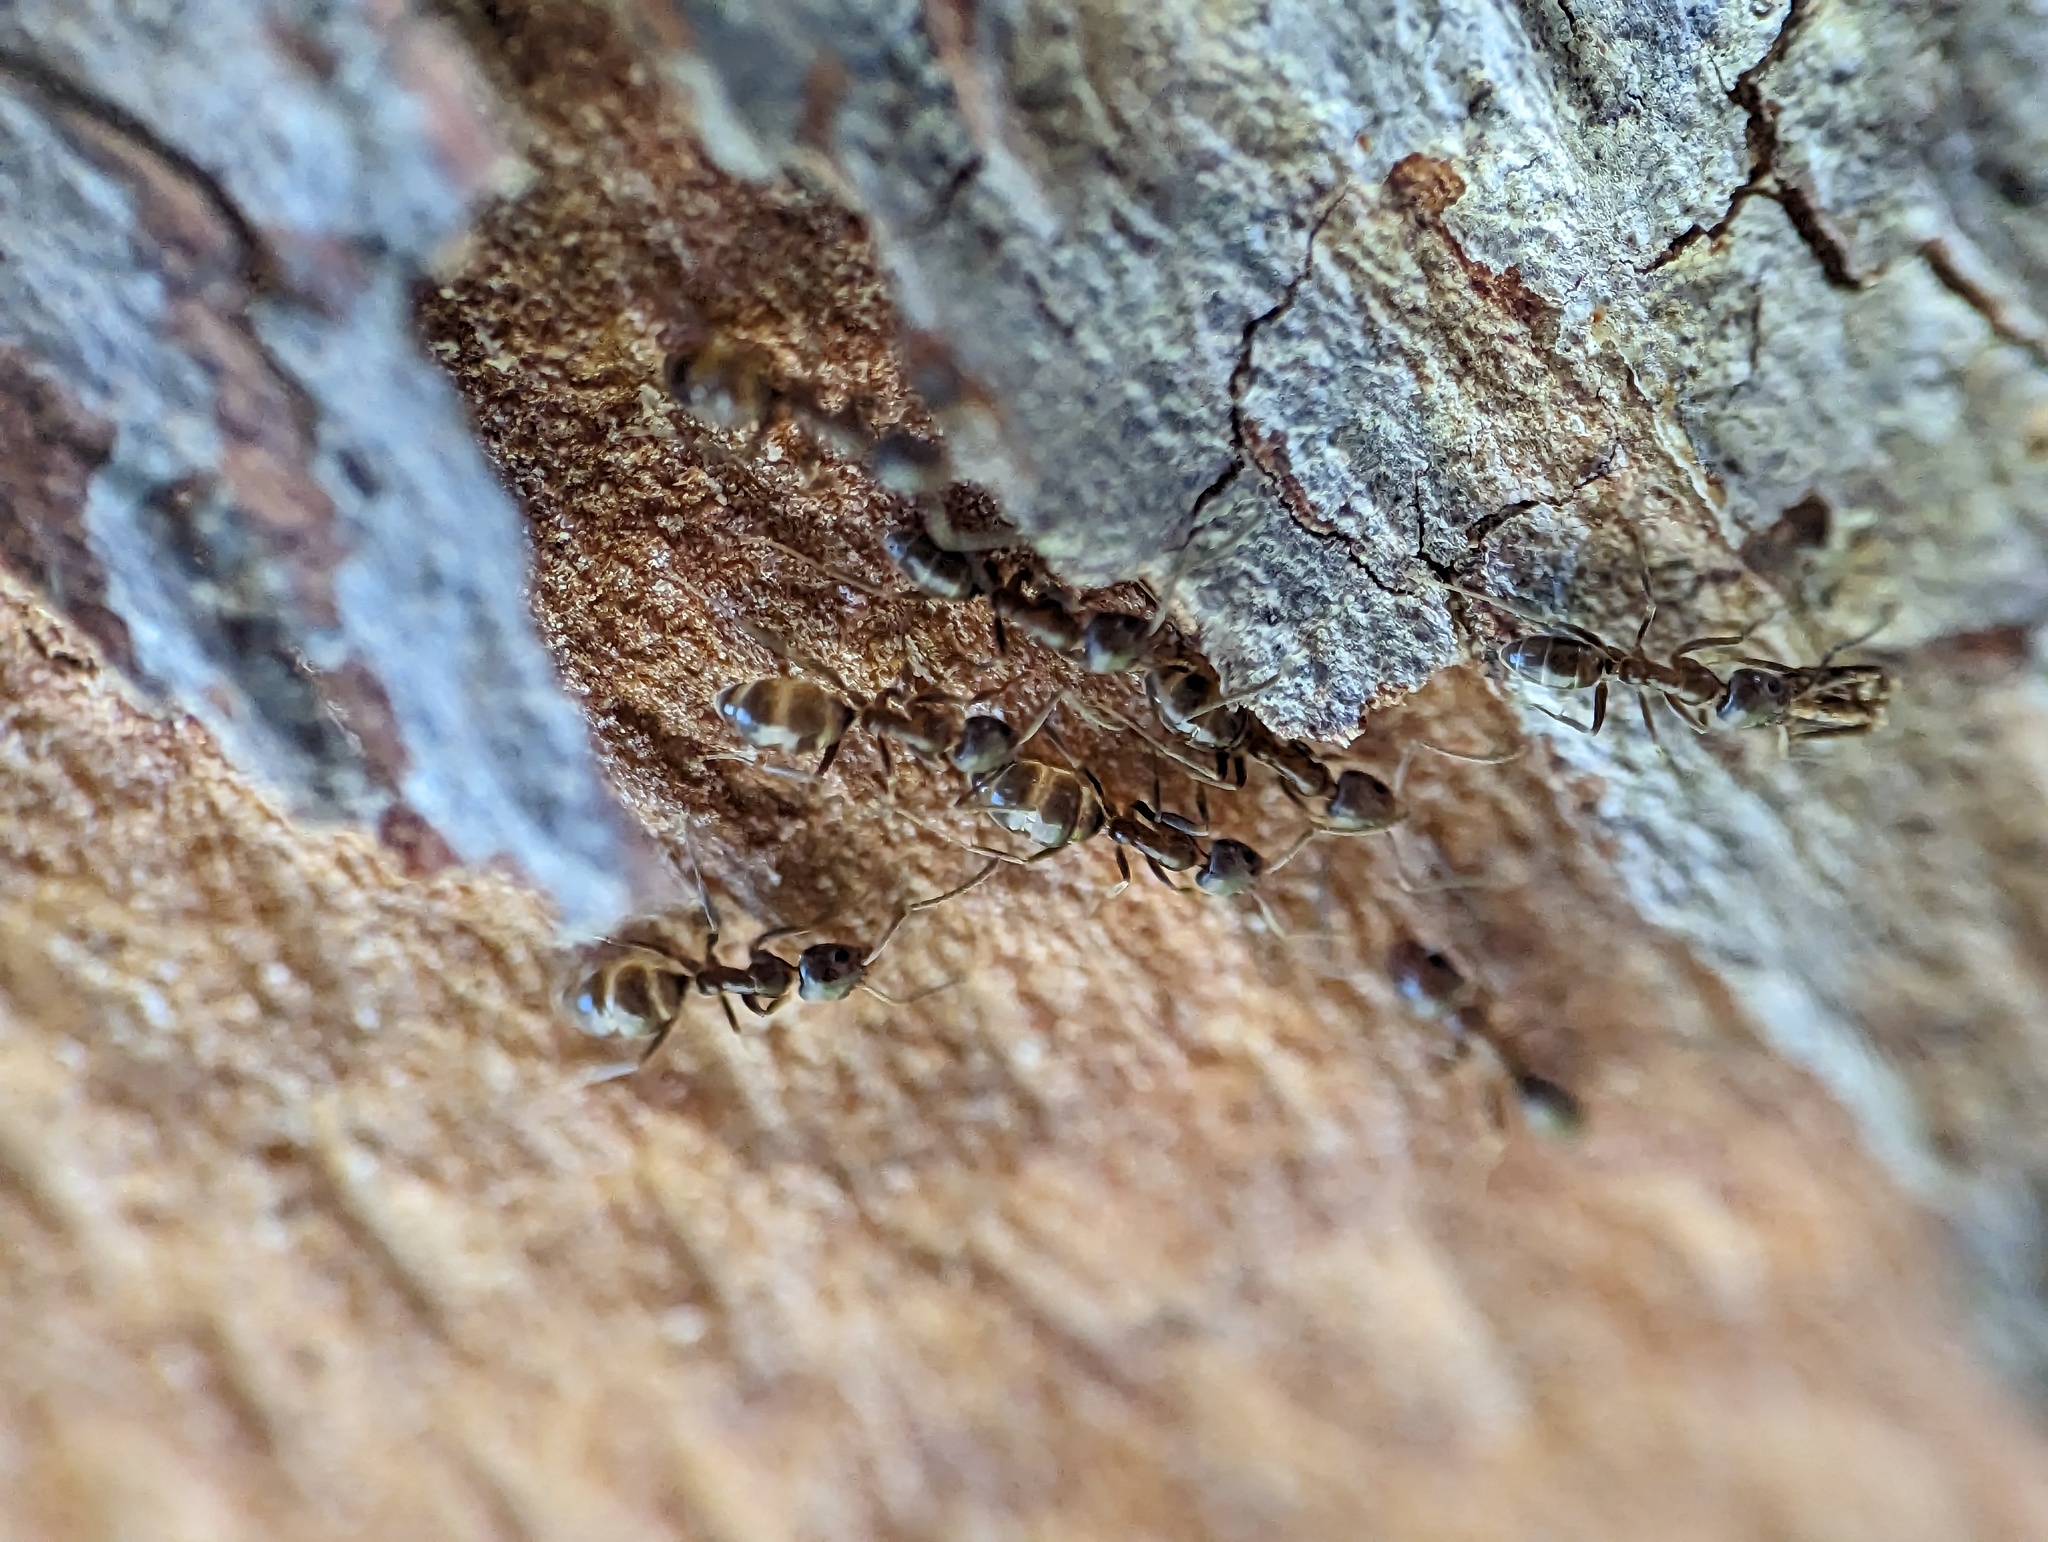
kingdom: Animalia
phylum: Arthropoda
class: Insecta
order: Hymenoptera
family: Formicidae
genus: Linepithema
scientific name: Linepithema humile
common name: Argentine ant
